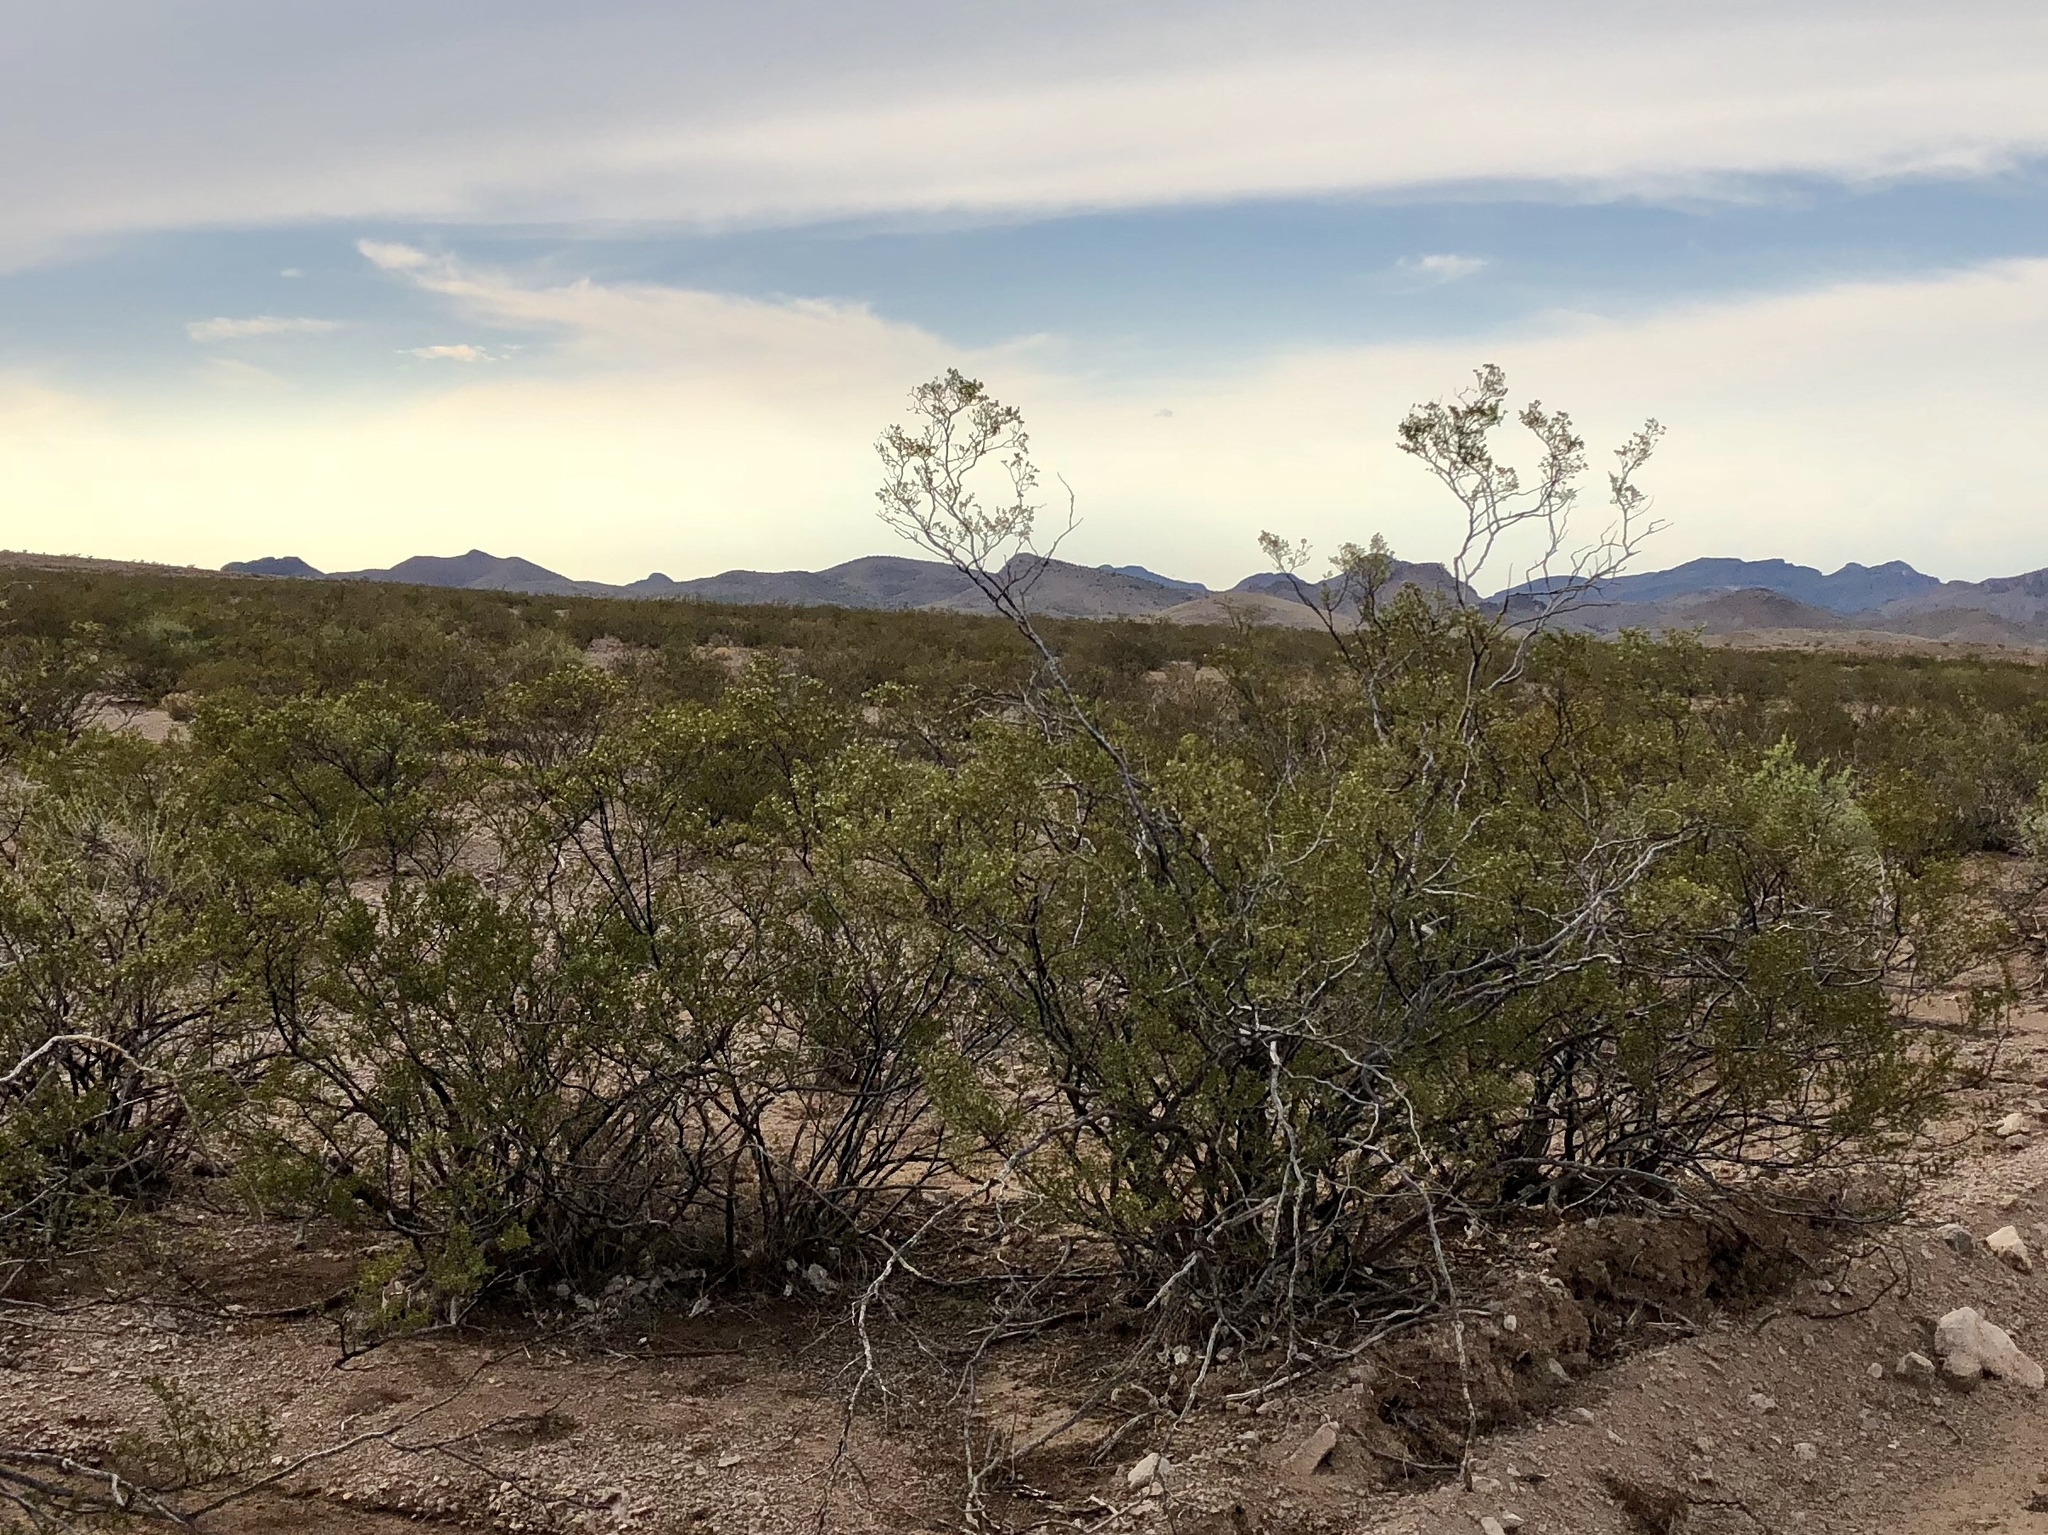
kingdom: Plantae
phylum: Tracheophyta
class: Magnoliopsida
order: Zygophyllales
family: Zygophyllaceae
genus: Larrea
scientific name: Larrea tridentata
